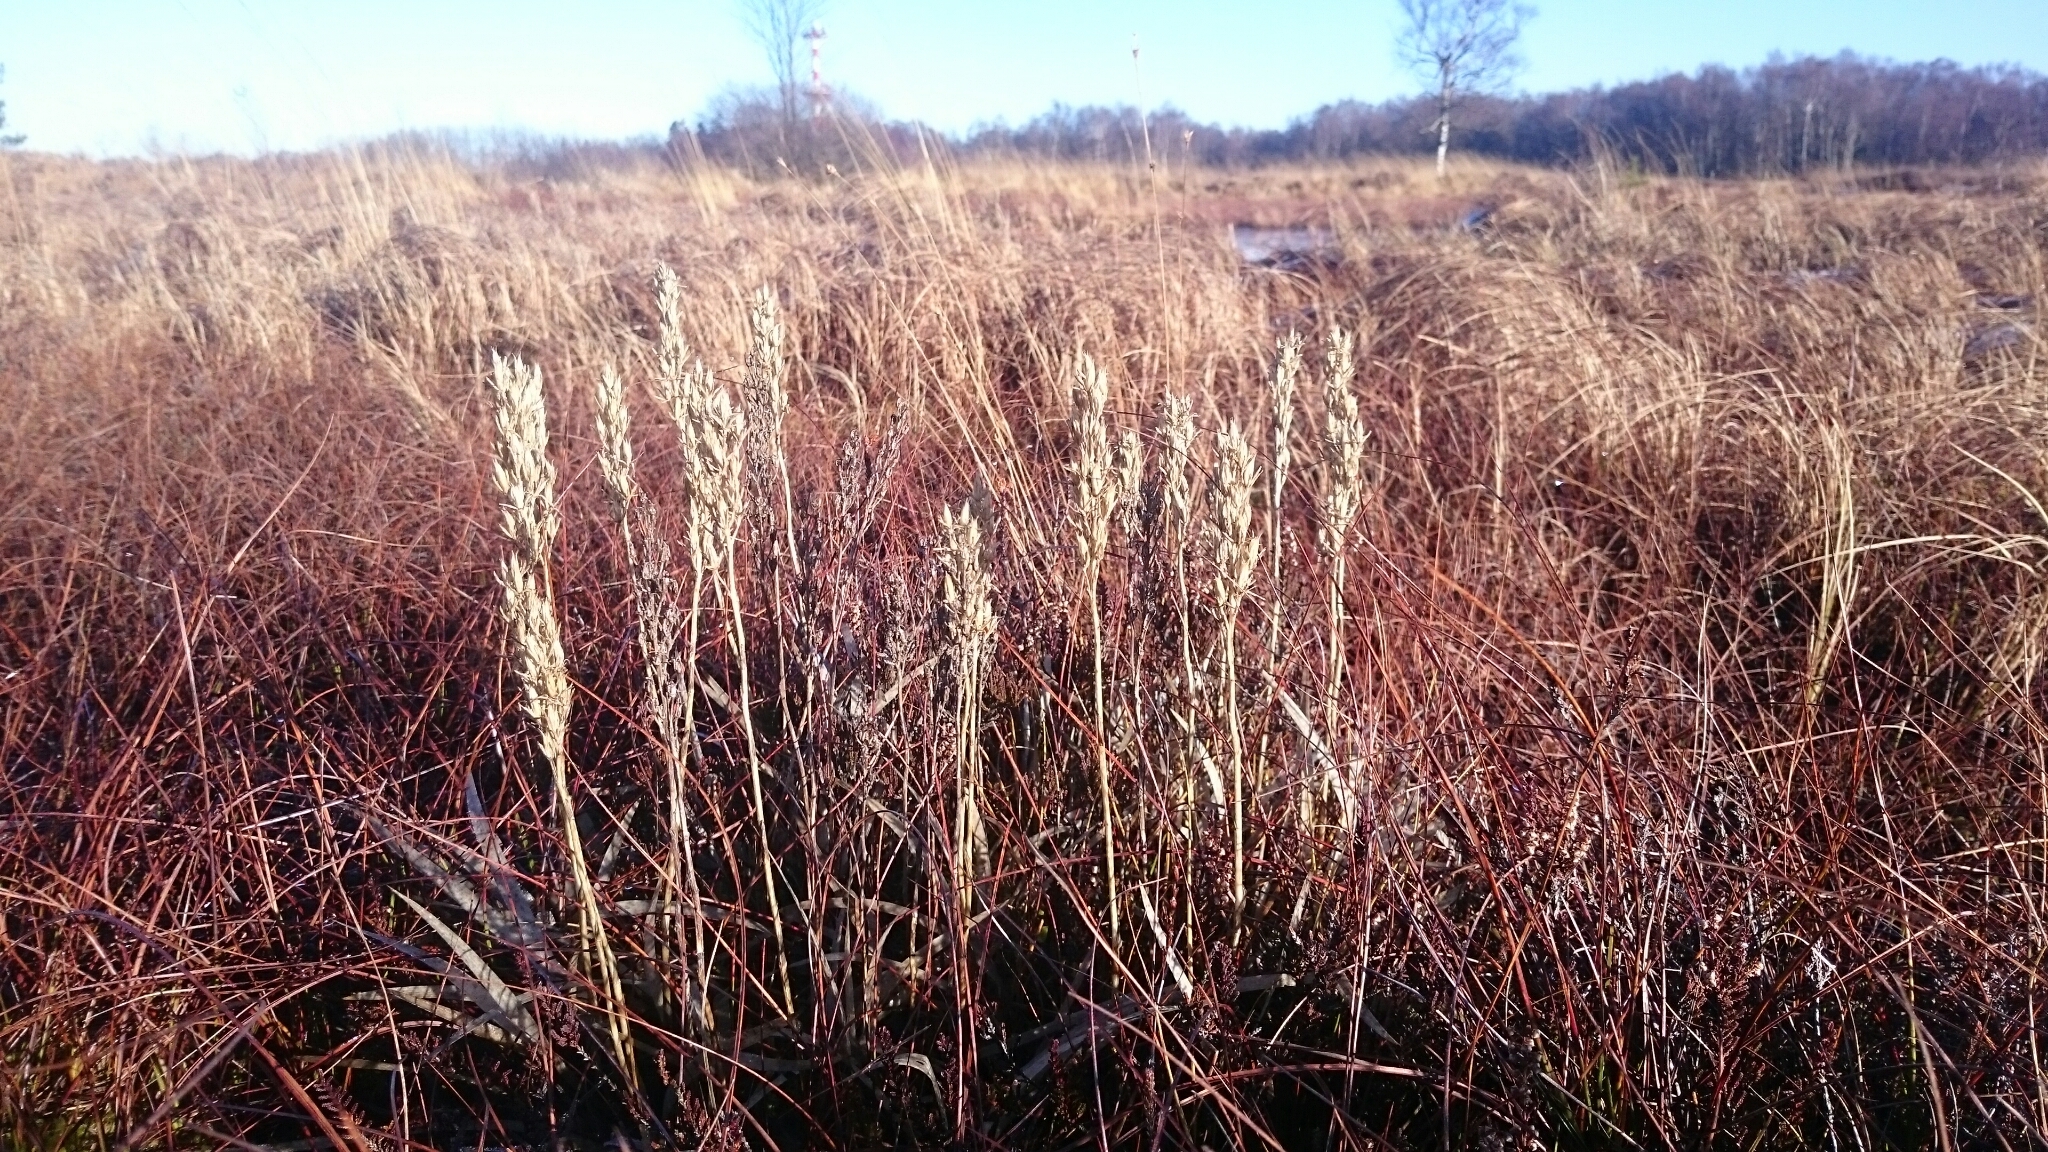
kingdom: Plantae
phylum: Tracheophyta
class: Liliopsida
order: Dioscoreales
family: Nartheciaceae
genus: Narthecium
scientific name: Narthecium ossifragum
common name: Bog asphodel
